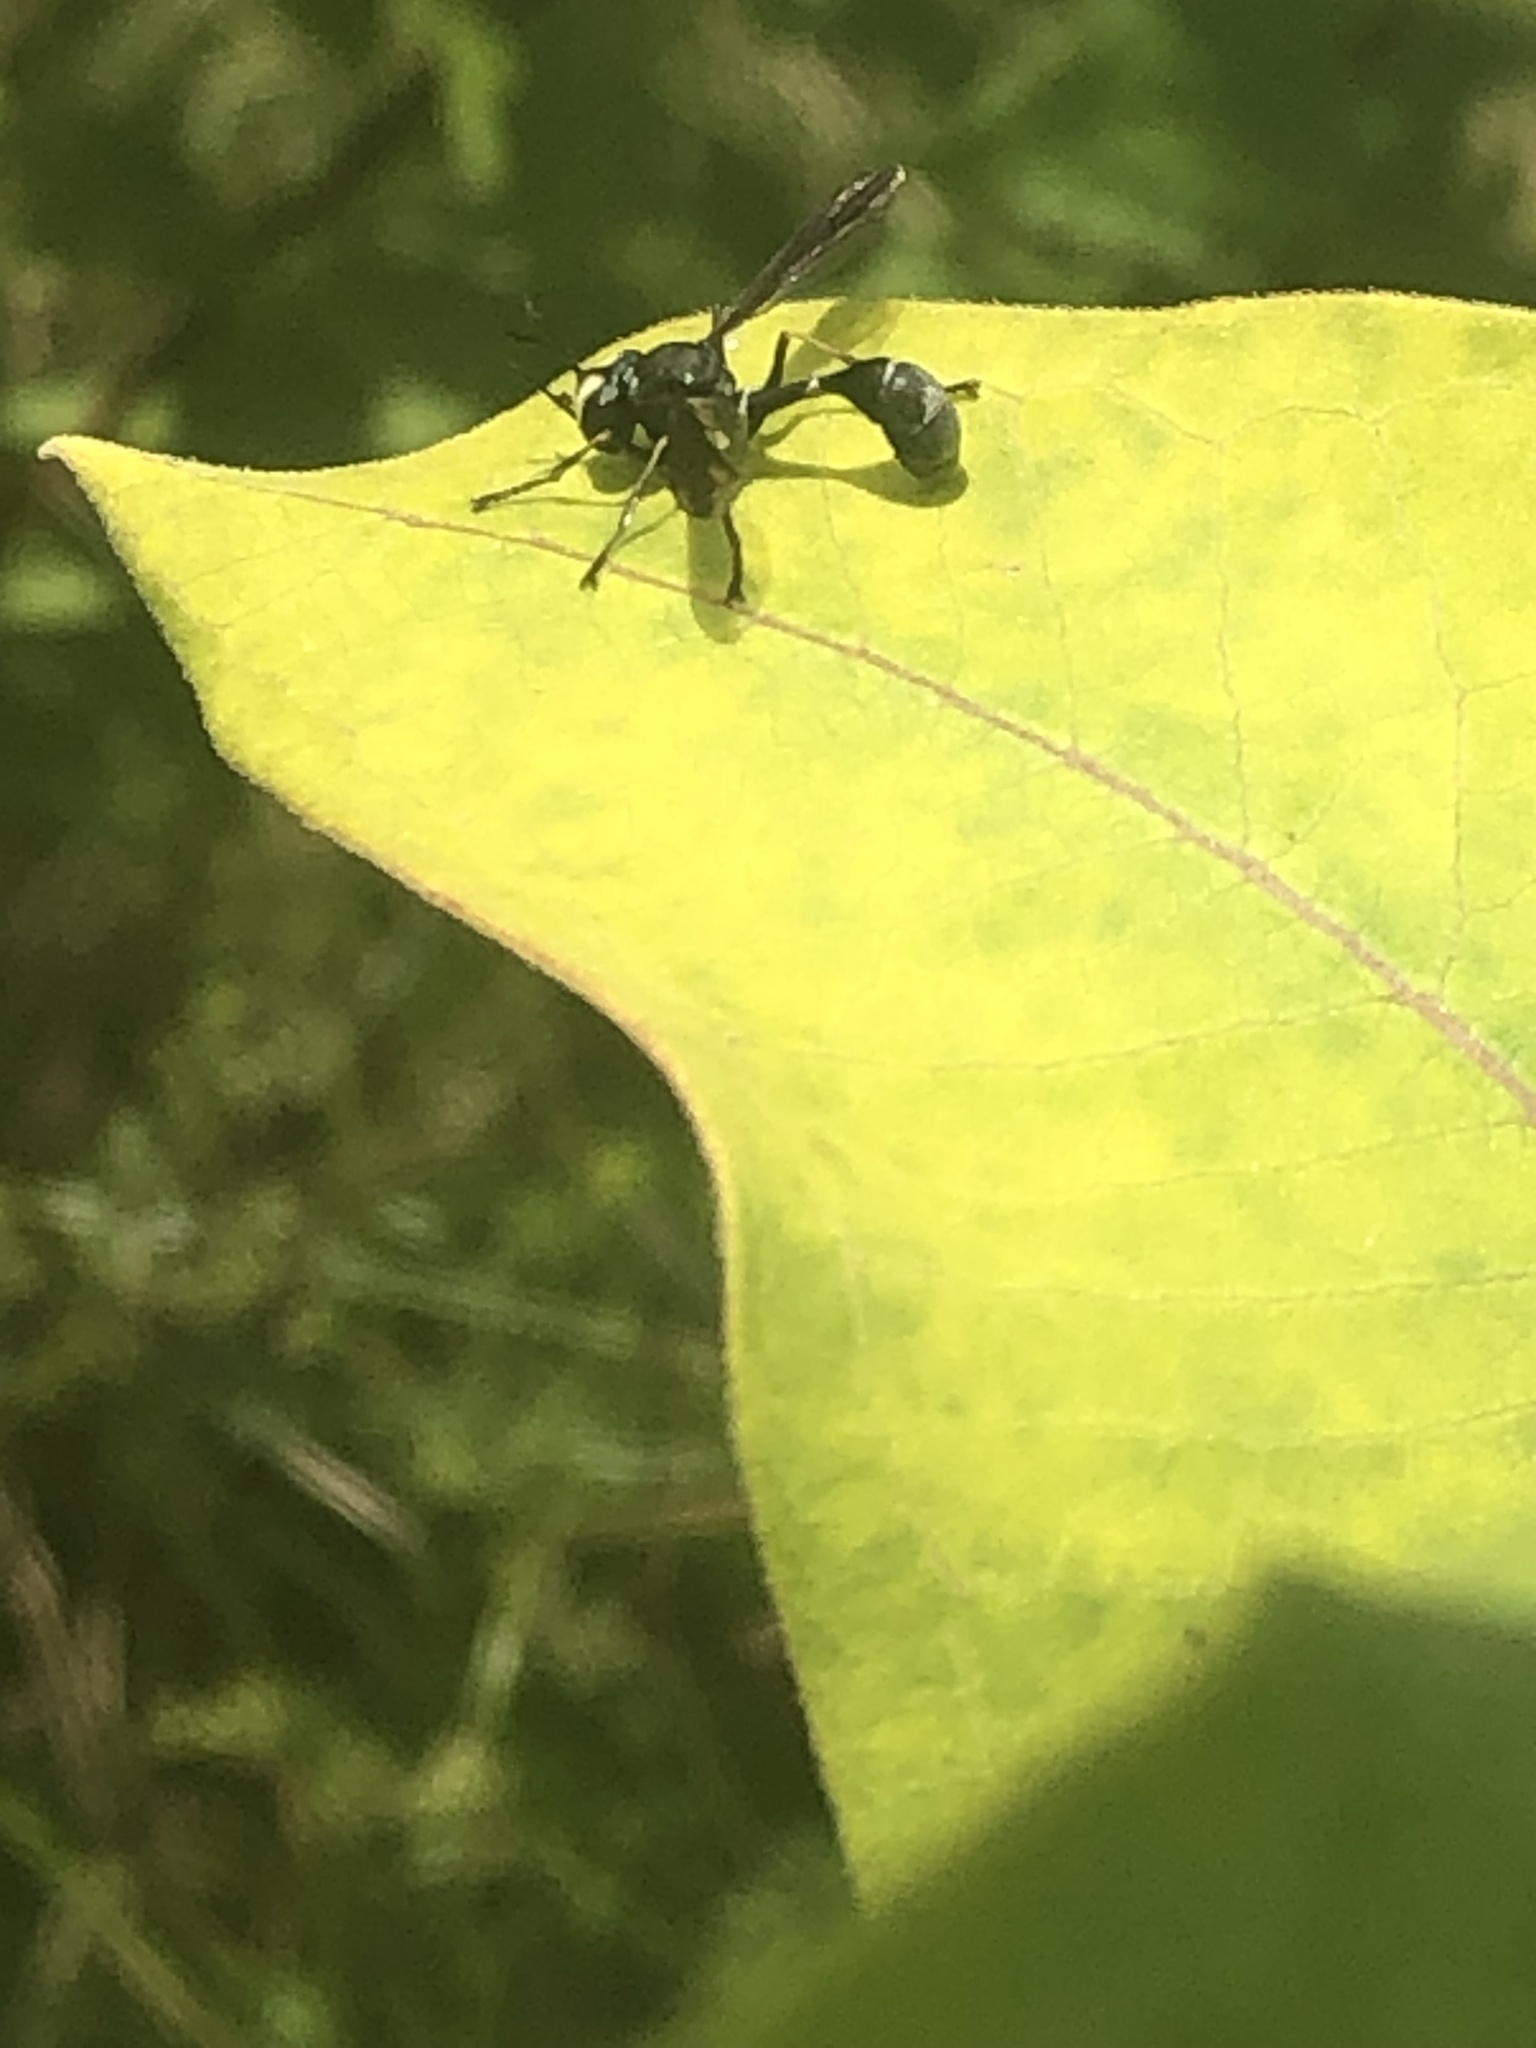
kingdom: Animalia
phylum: Arthropoda
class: Insecta
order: Diptera
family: Conopidae
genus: Physocephala
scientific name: Physocephala tibialis
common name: Common eastern physocephala
